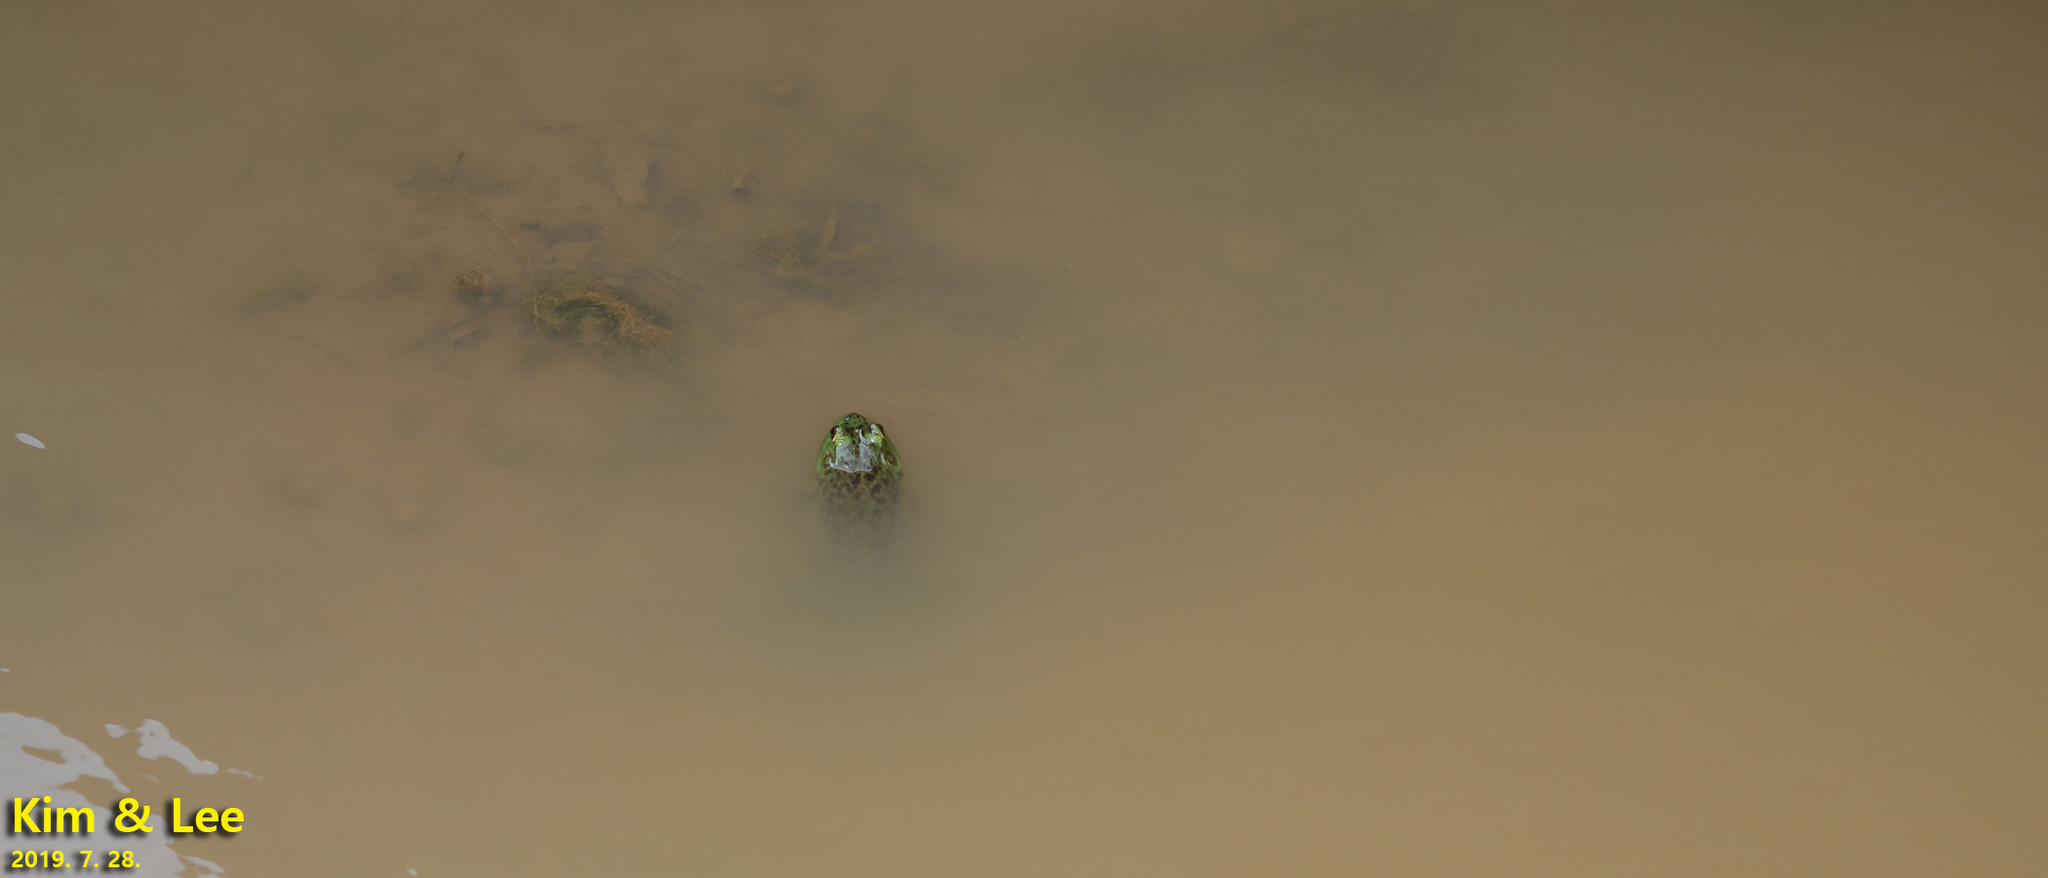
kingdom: Animalia
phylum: Chordata
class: Amphibia
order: Anura
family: Ranidae
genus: Lithobates
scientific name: Lithobates catesbeianus
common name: American bullfrog
